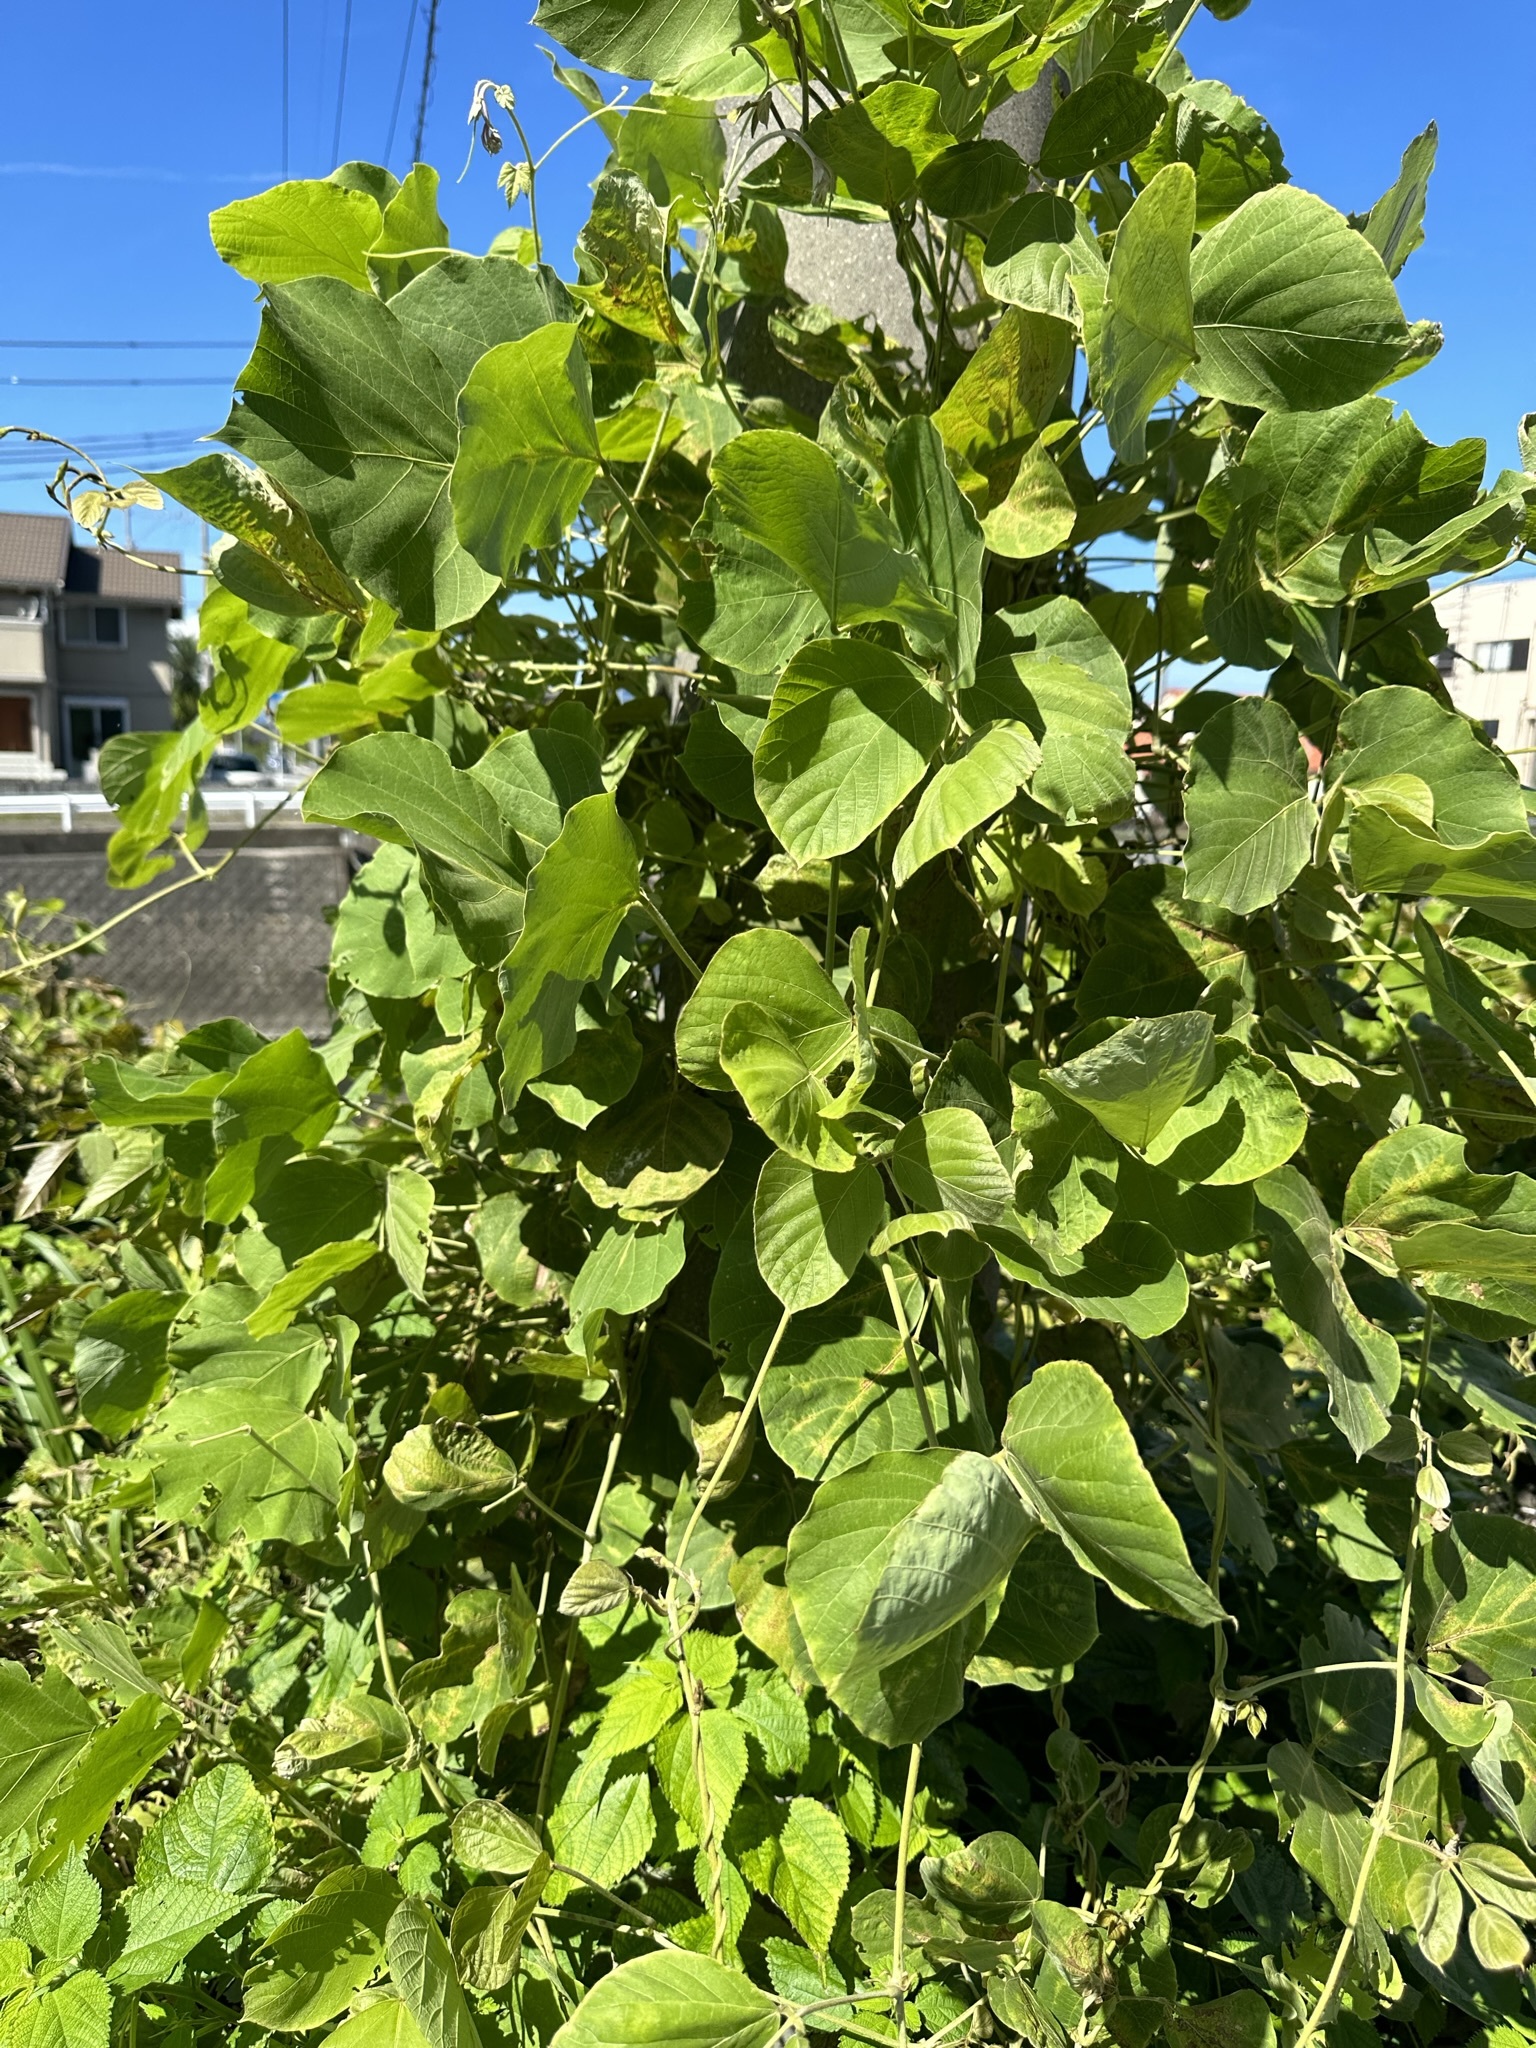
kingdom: Plantae
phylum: Tracheophyta
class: Magnoliopsida
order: Fabales
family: Fabaceae
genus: Pueraria
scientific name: Pueraria montana
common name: Kudzu
